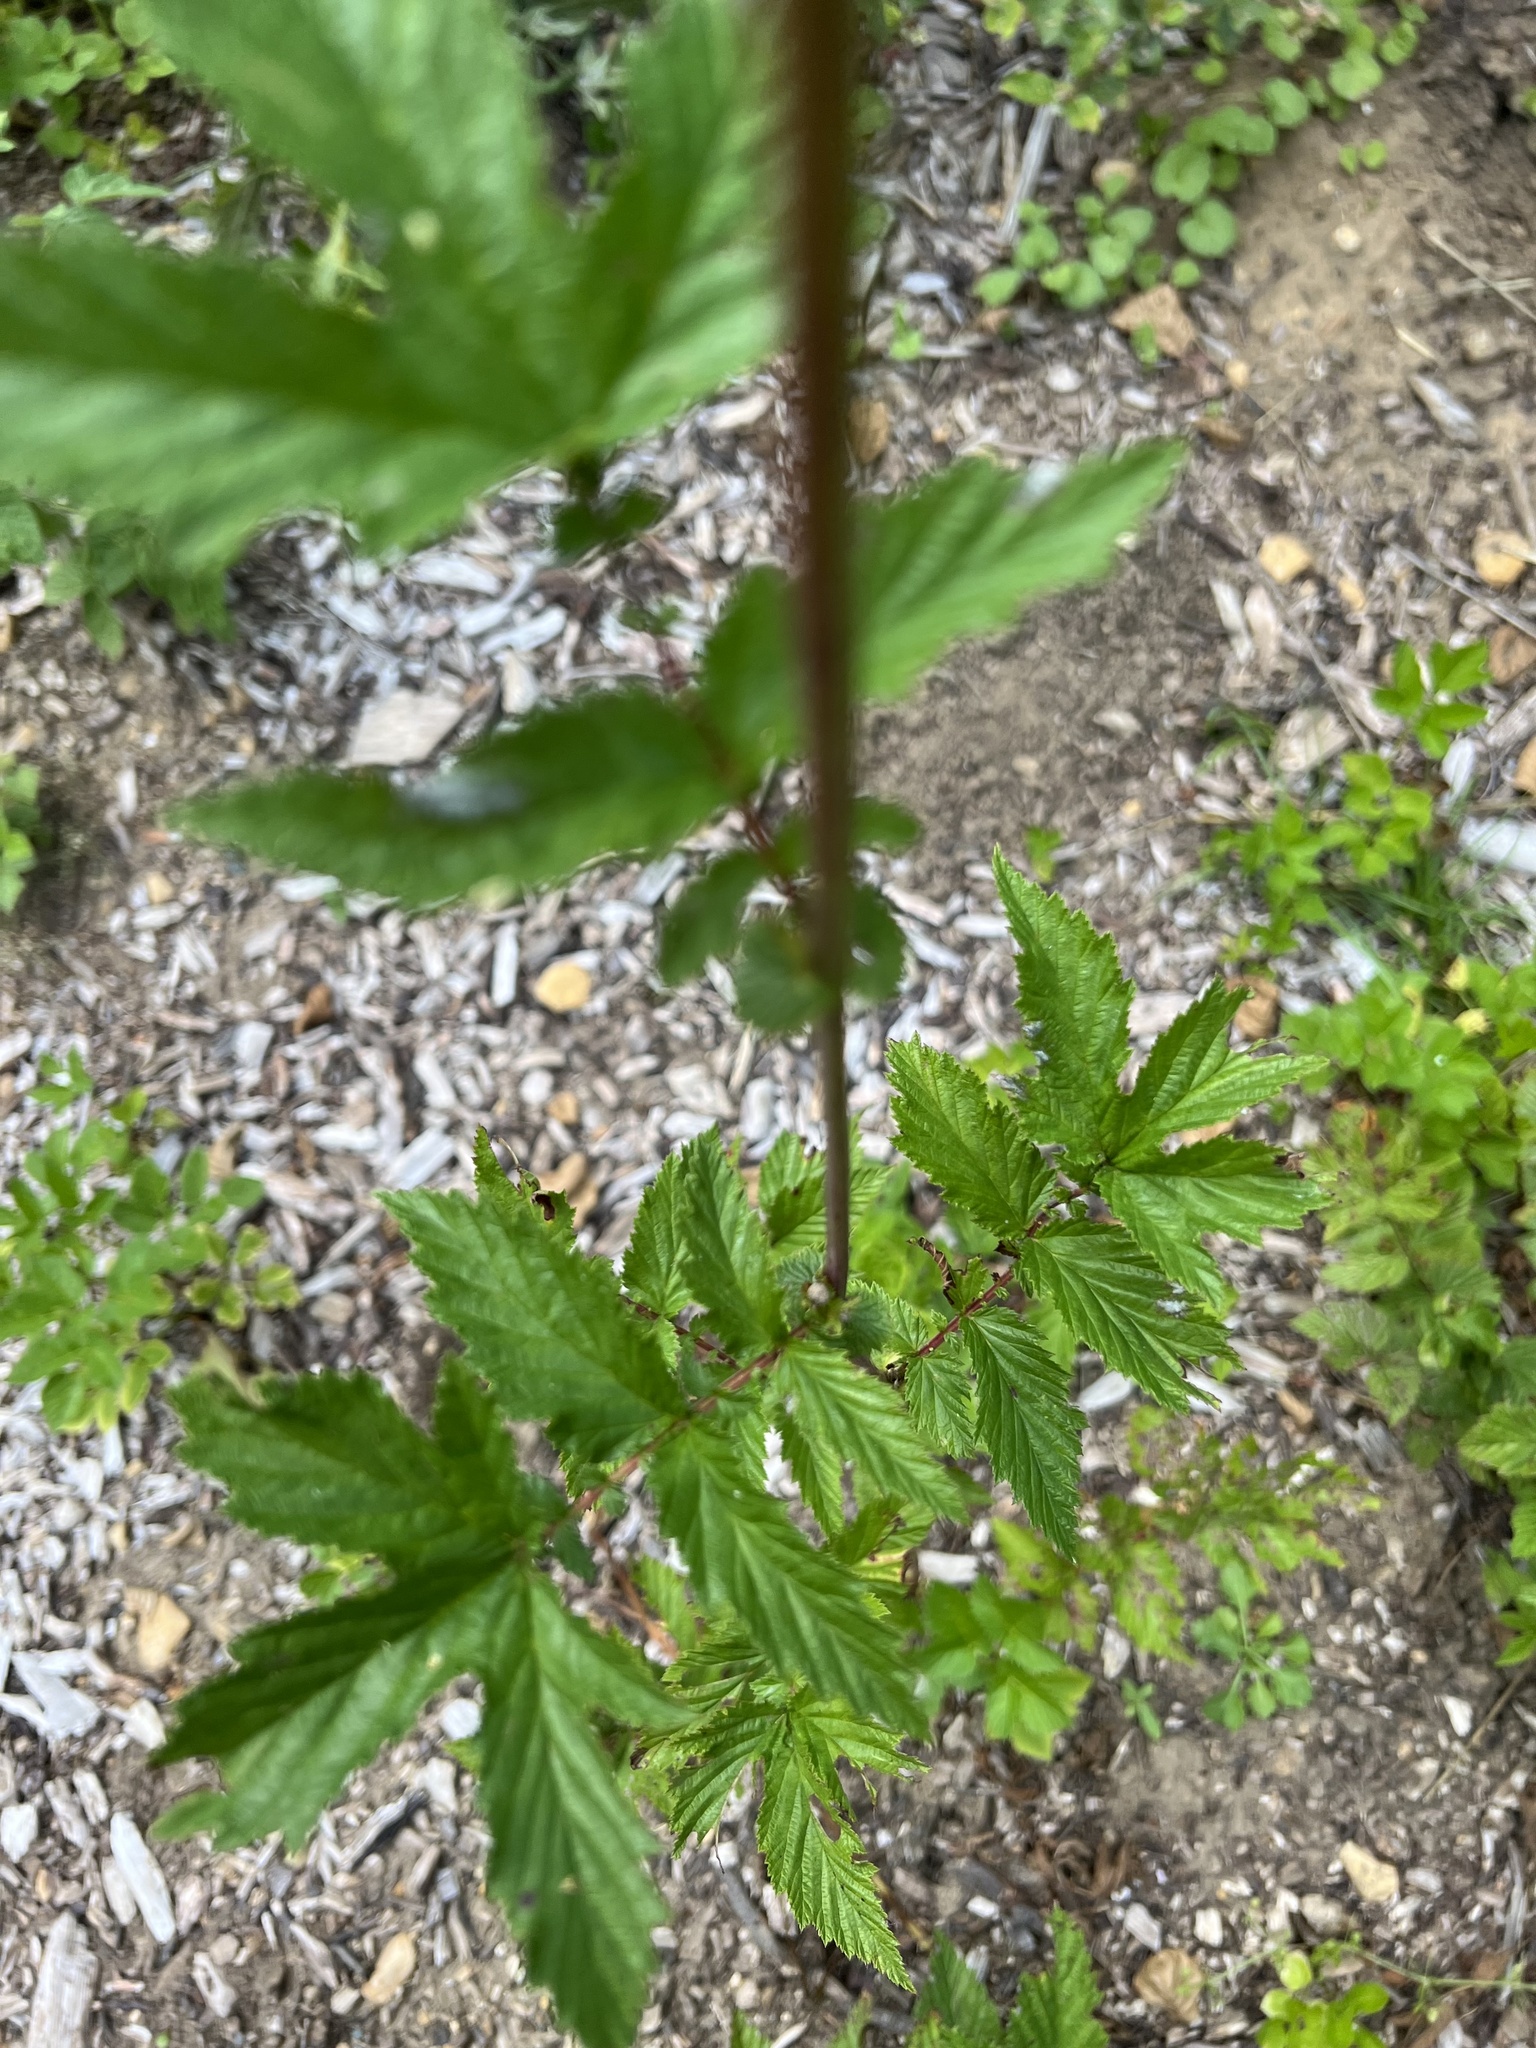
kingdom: Plantae
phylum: Tracheophyta
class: Magnoliopsida
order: Rosales
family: Rosaceae
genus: Filipendula
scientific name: Filipendula ulmaria
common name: Meadowsweet
